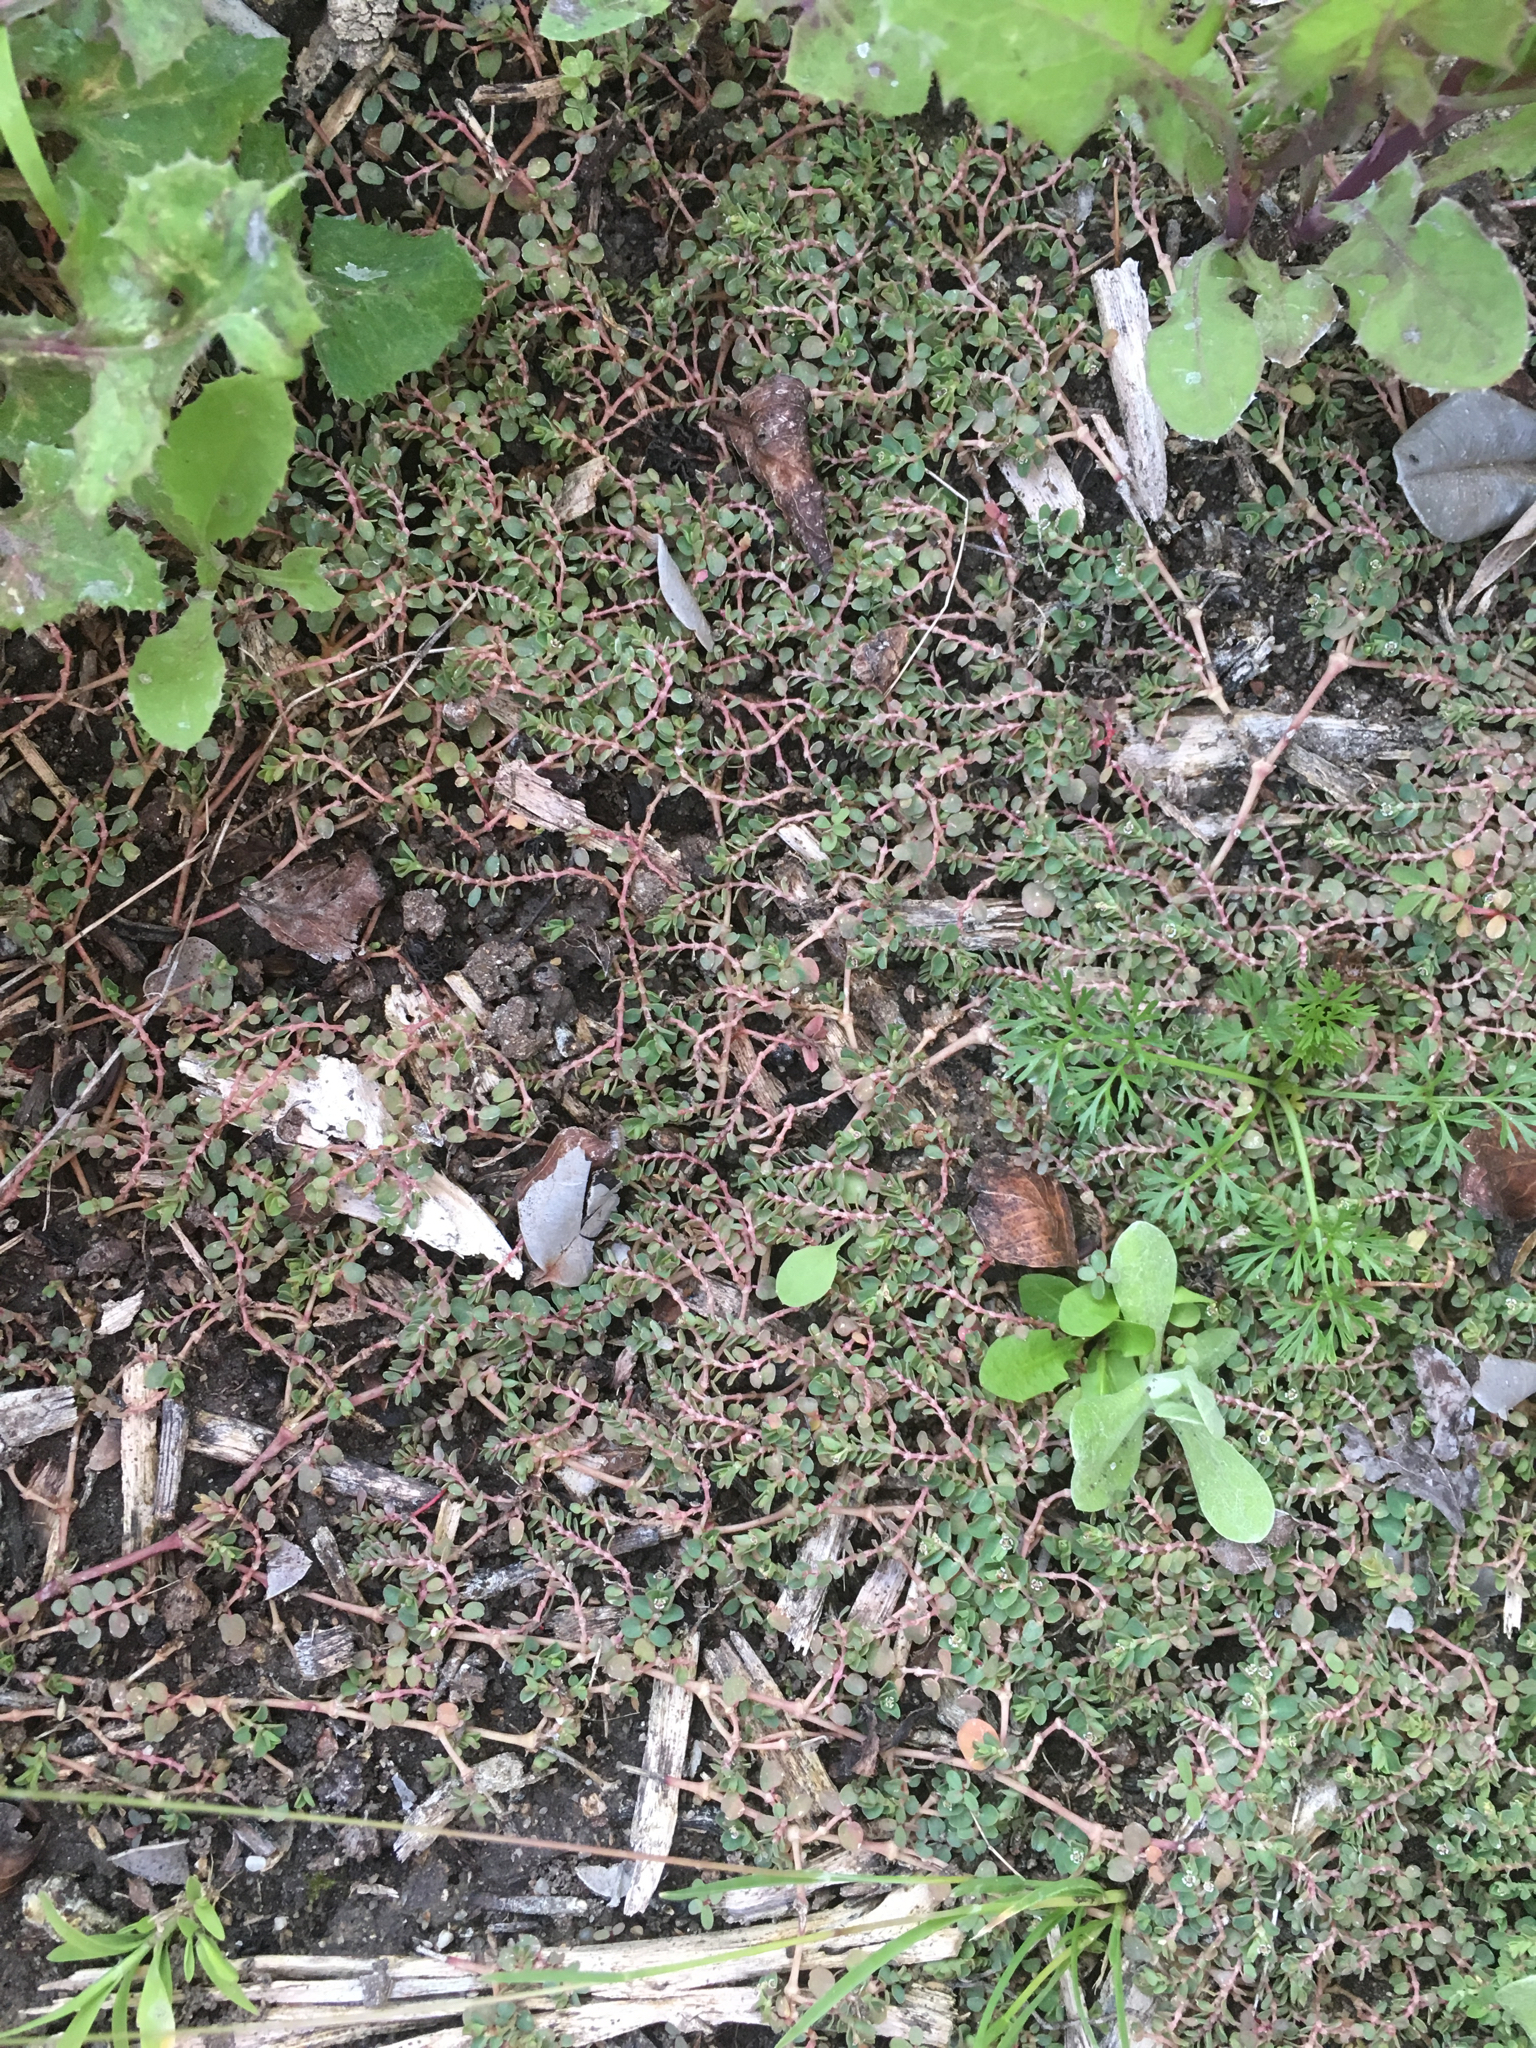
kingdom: Plantae
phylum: Tracheophyta
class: Magnoliopsida
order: Malpighiales
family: Euphorbiaceae
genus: Euphorbia
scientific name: Euphorbia serpens
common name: Matted sandmat
